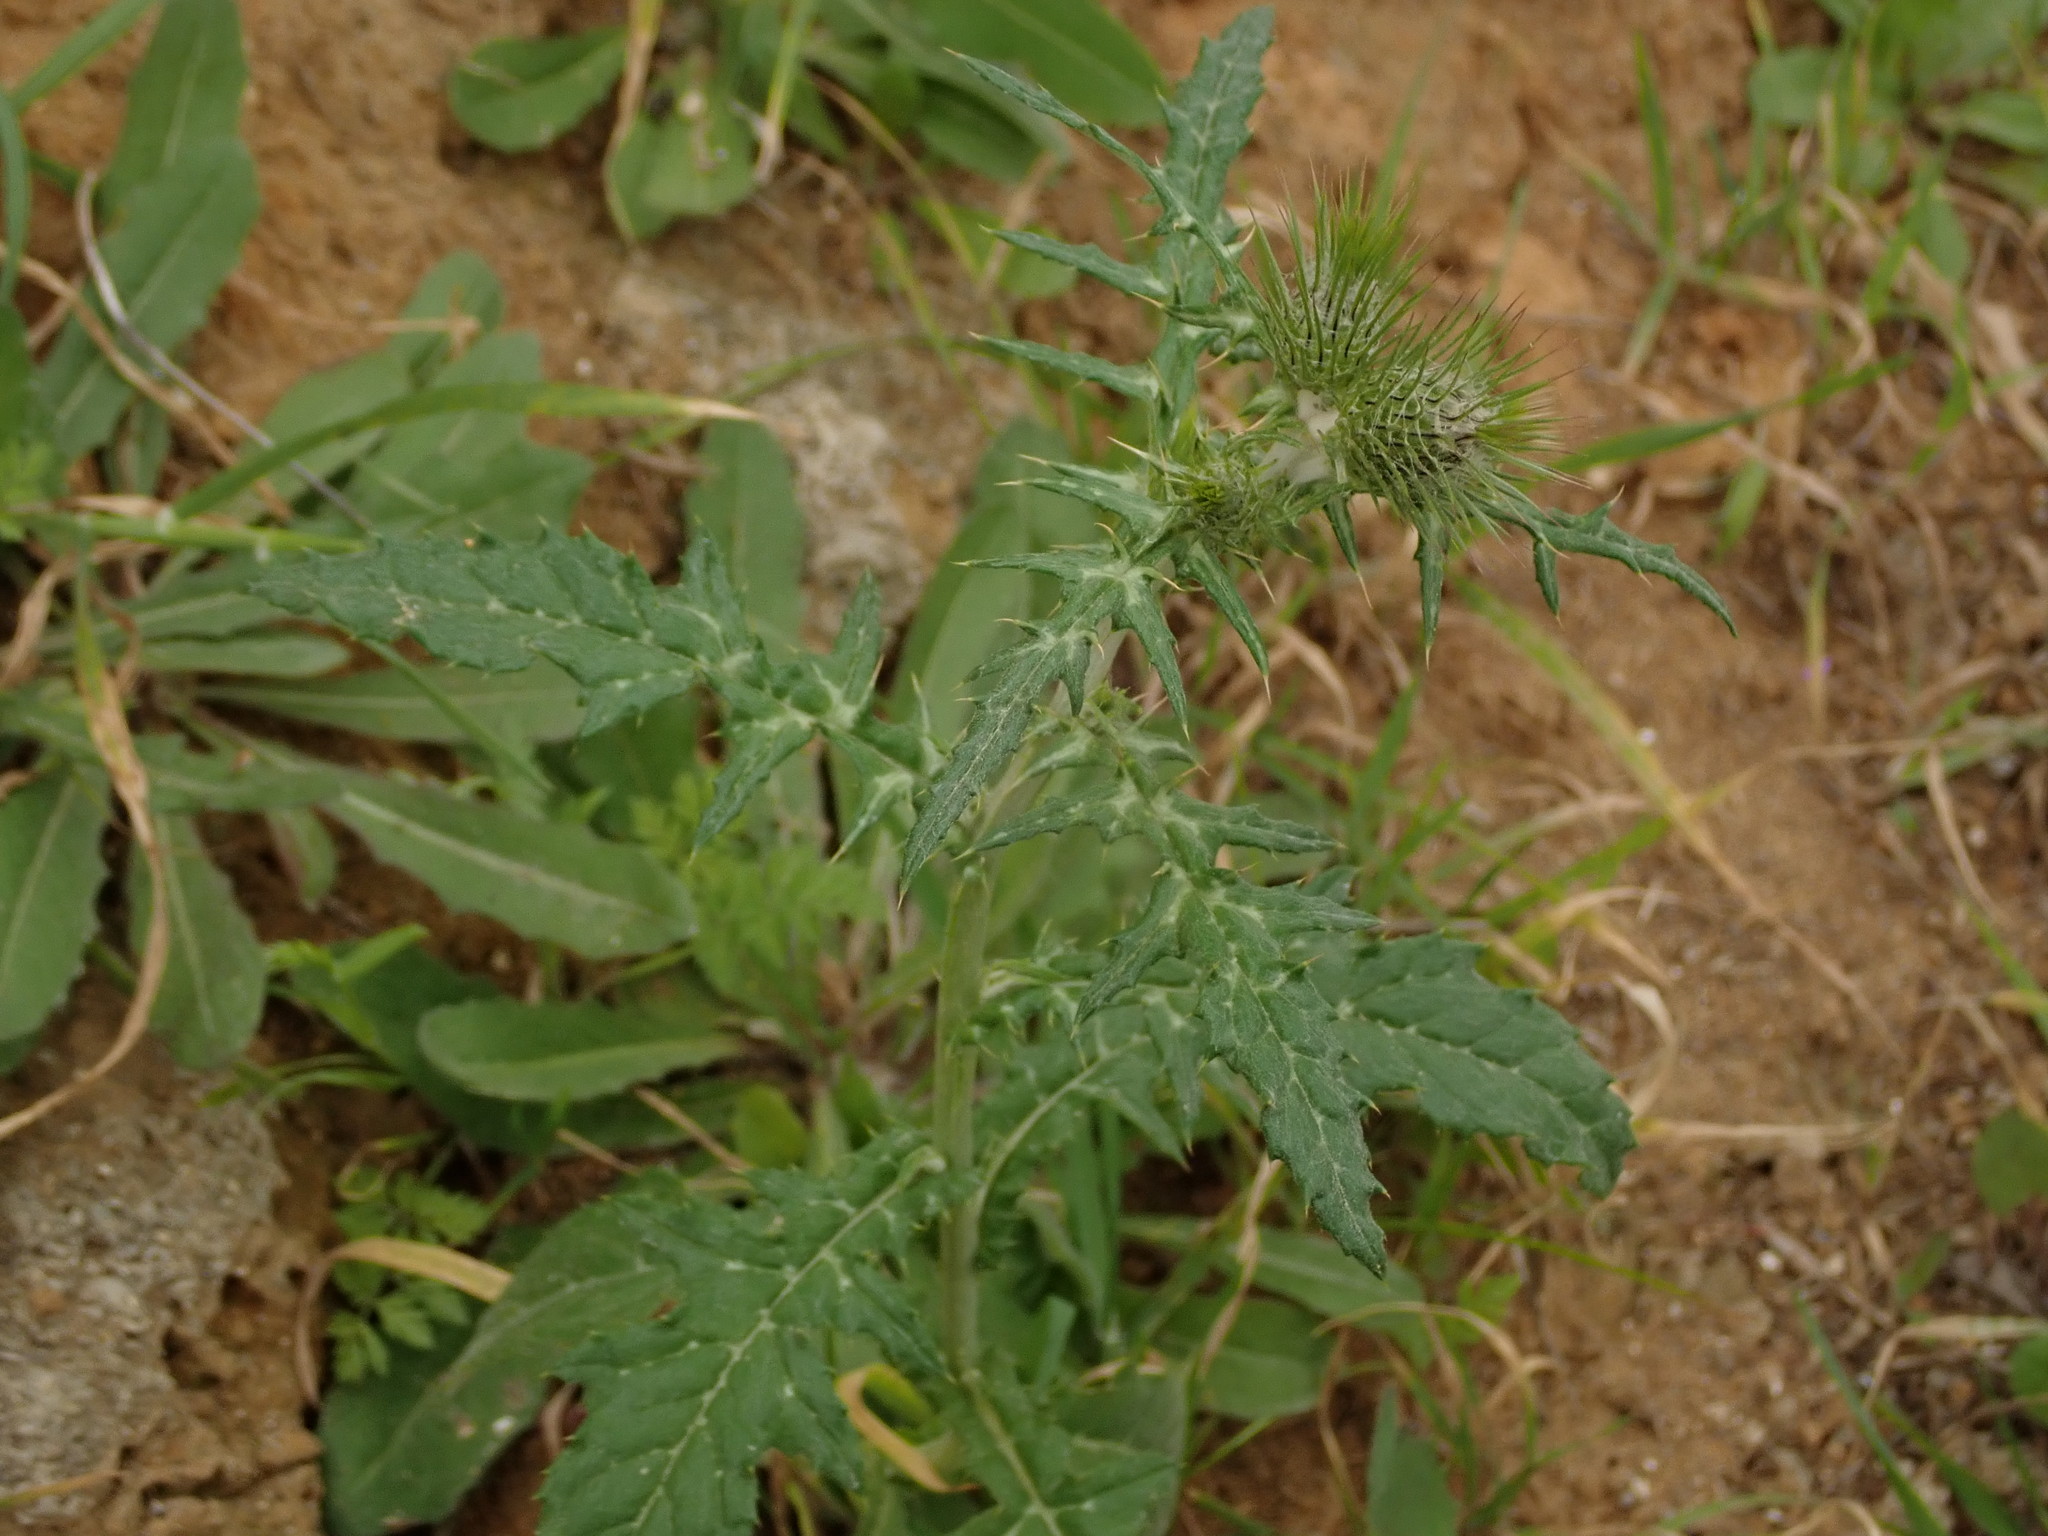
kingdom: Plantae
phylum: Tracheophyta
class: Magnoliopsida
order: Asterales
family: Asteraceae
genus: Galactites
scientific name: Galactites tomentosa
